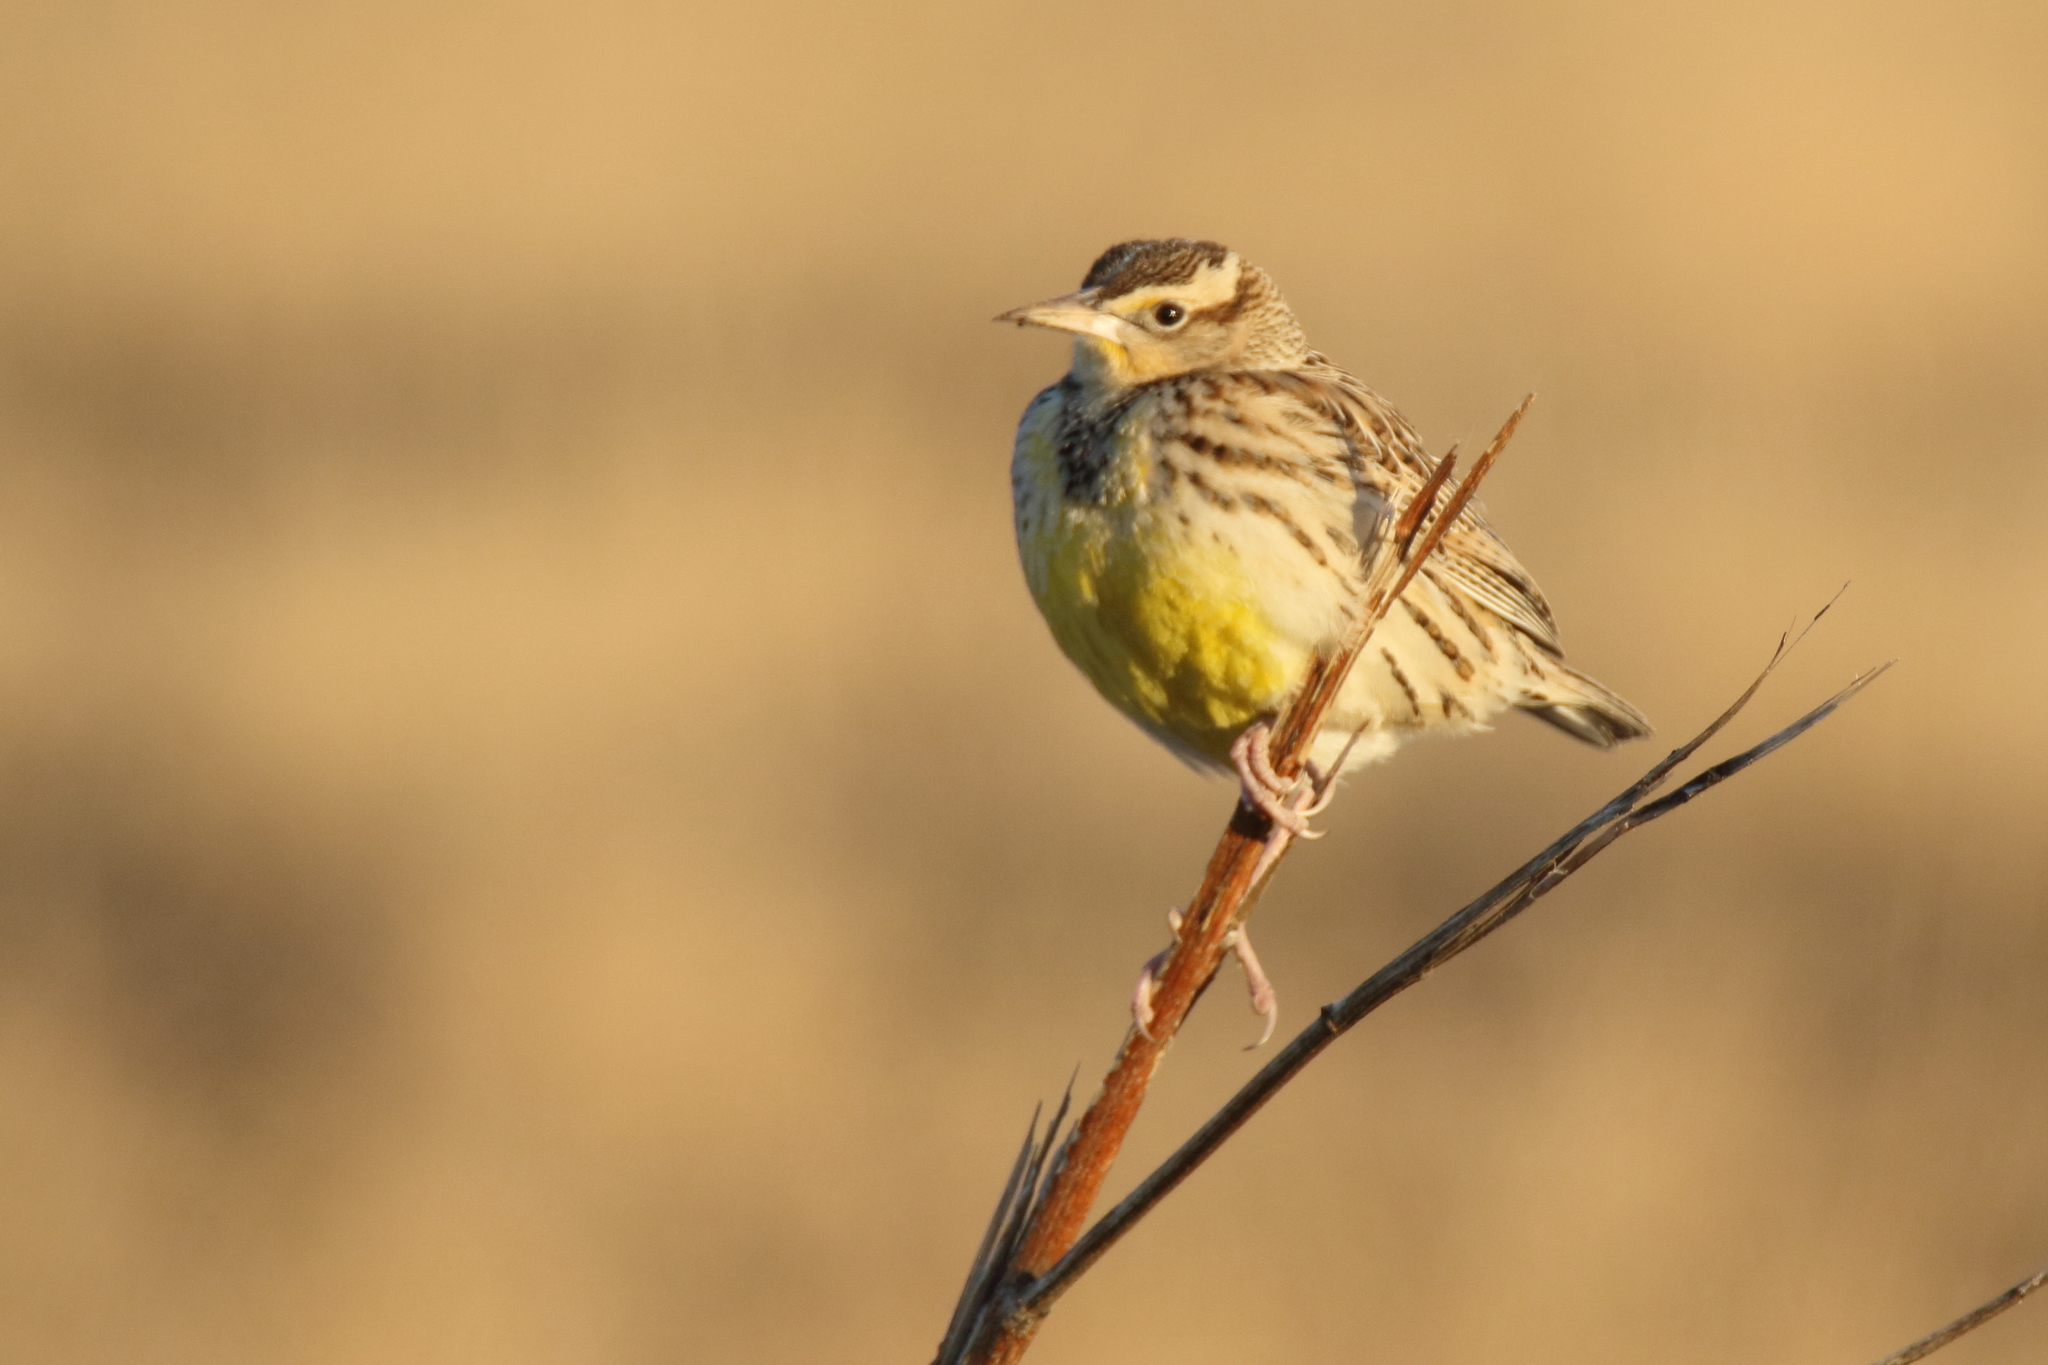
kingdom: Animalia
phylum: Chordata
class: Aves
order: Passeriformes
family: Icteridae
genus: Sturnella
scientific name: Sturnella
